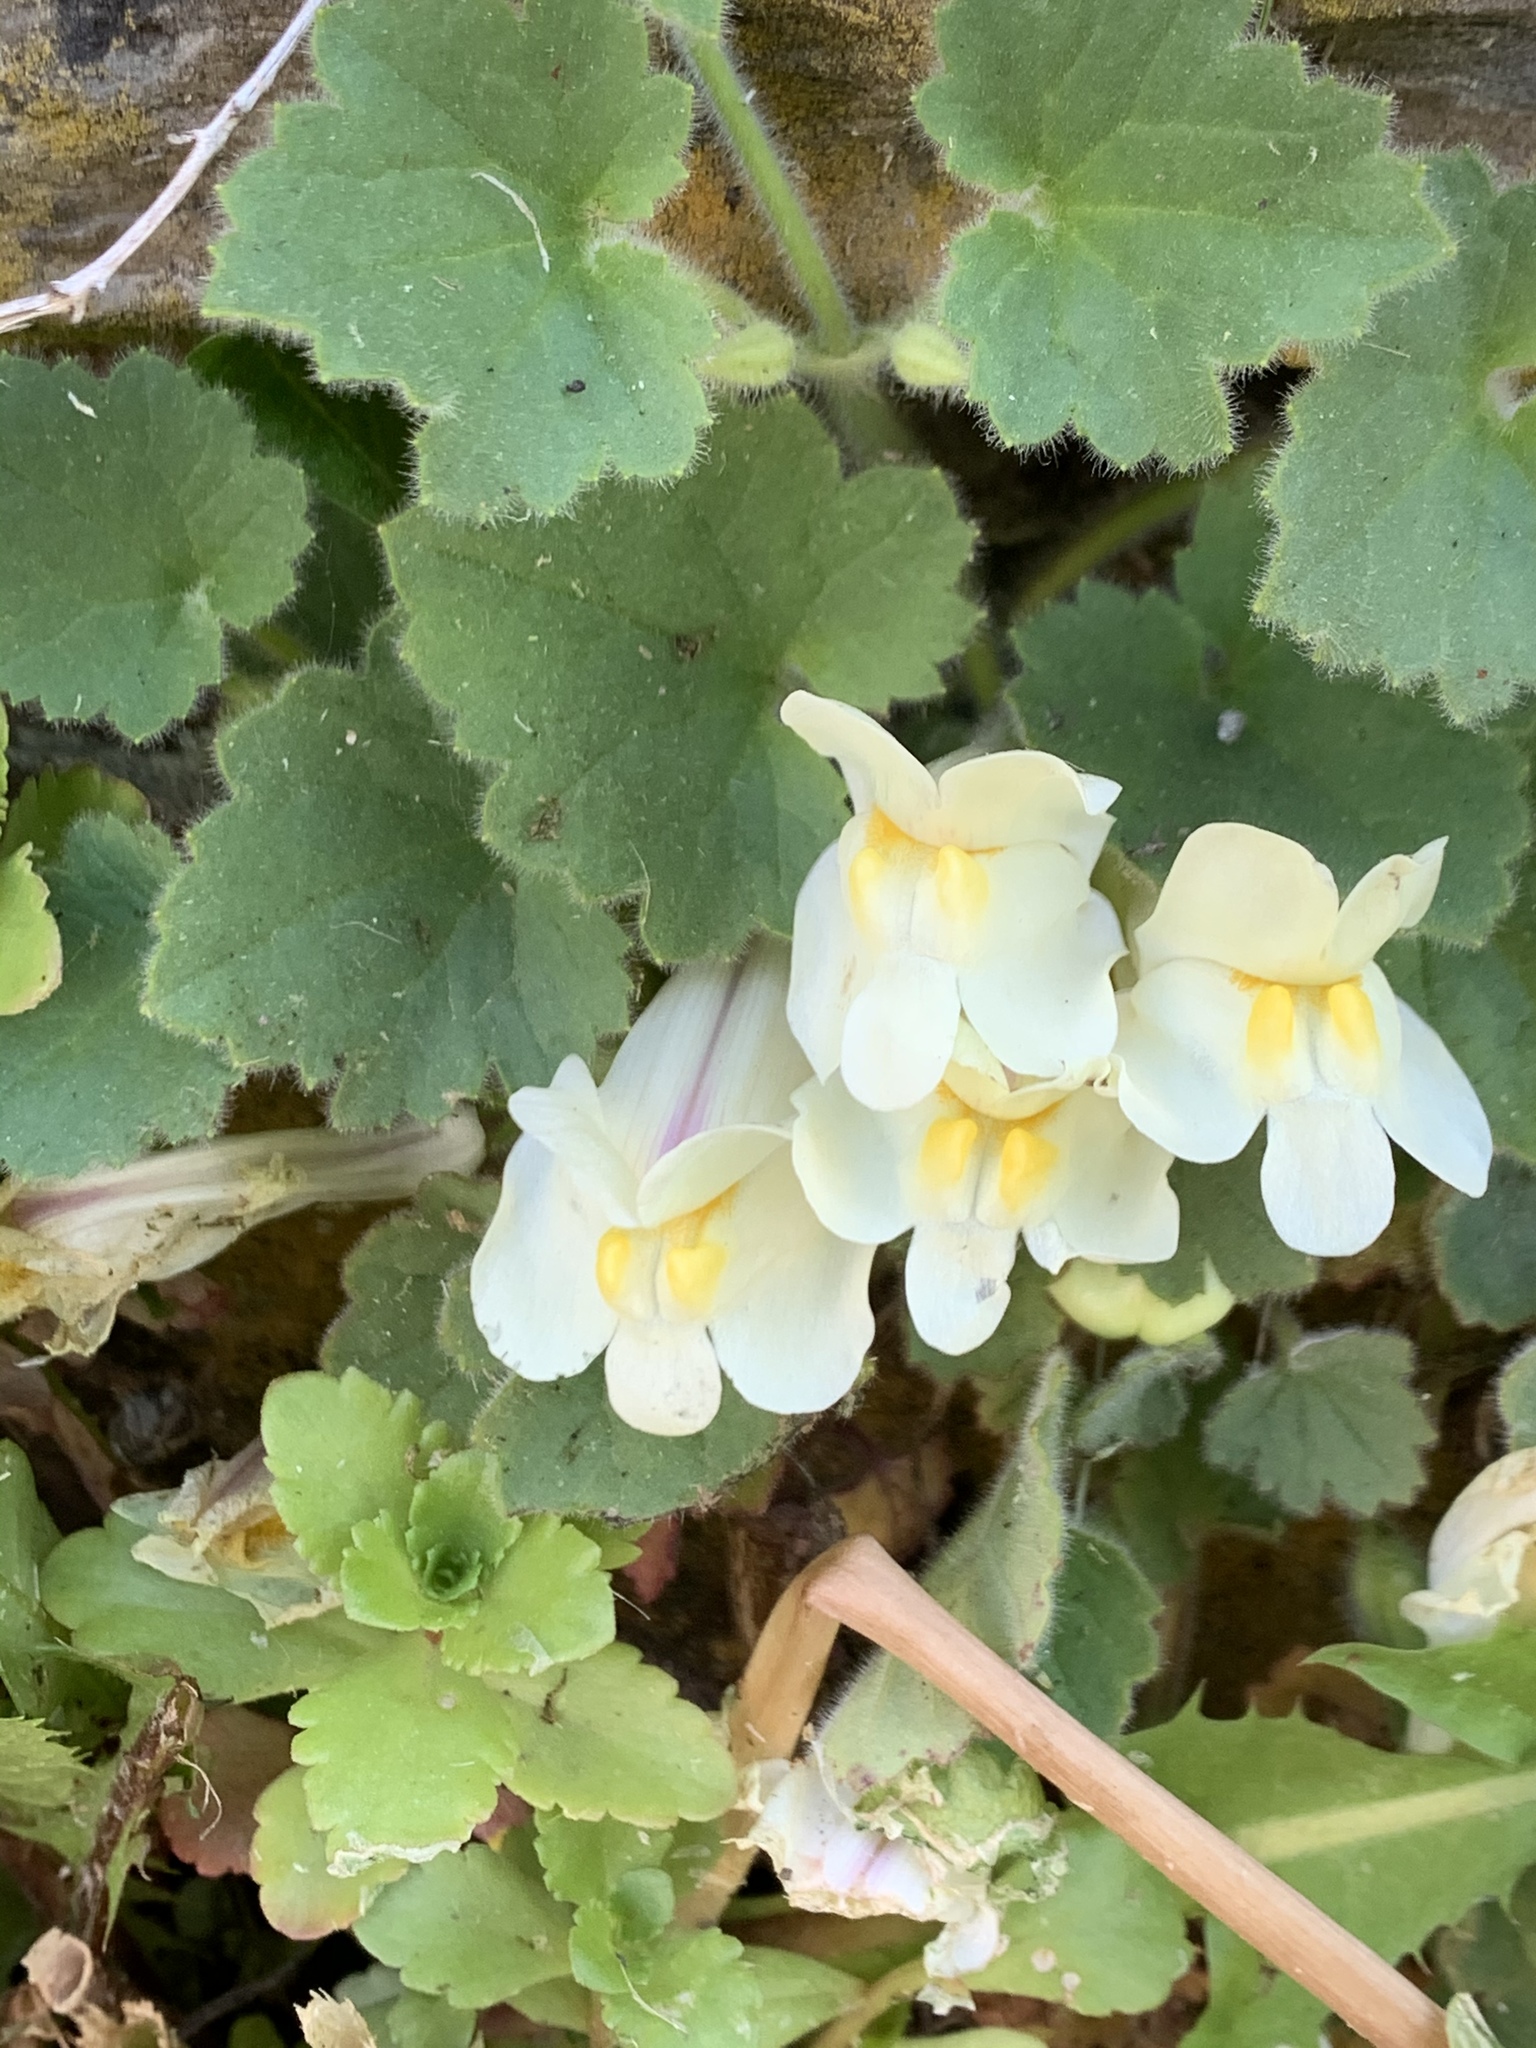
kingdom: Plantae
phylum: Tracheophyta
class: Magnoliopsida
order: Lamiales
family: Plantaginaceae
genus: Asarina
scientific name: Asarina procumbens
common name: Trailing snapdragon
